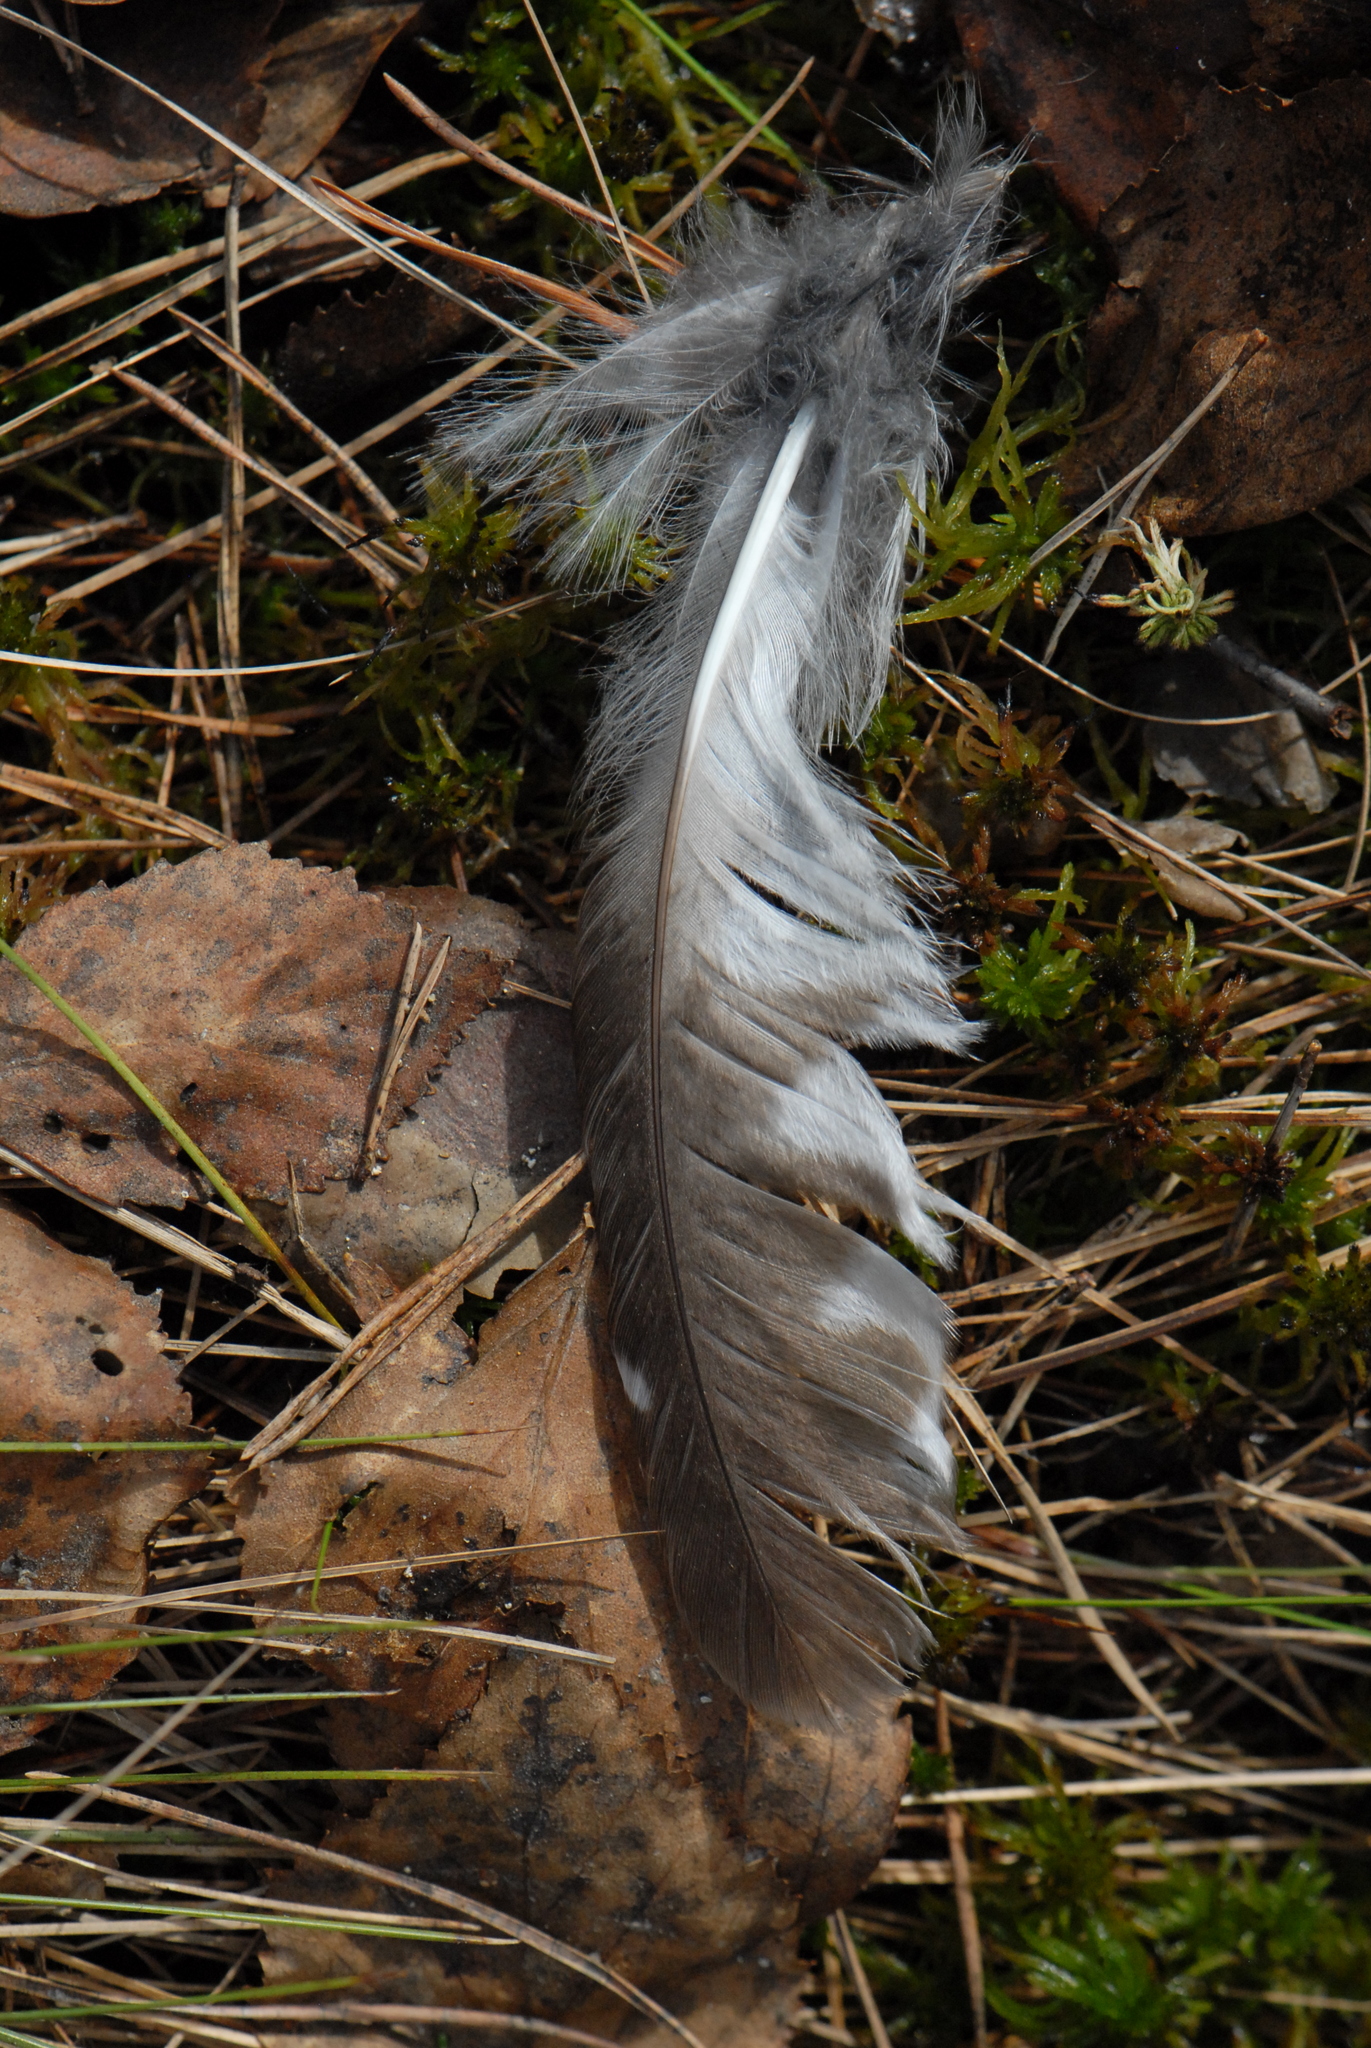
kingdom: Animalia
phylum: Chordata
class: Aves
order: Strigiformes
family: Strigidae
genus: Aegolius
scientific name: Aegolius funereus
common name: Boreal owl
